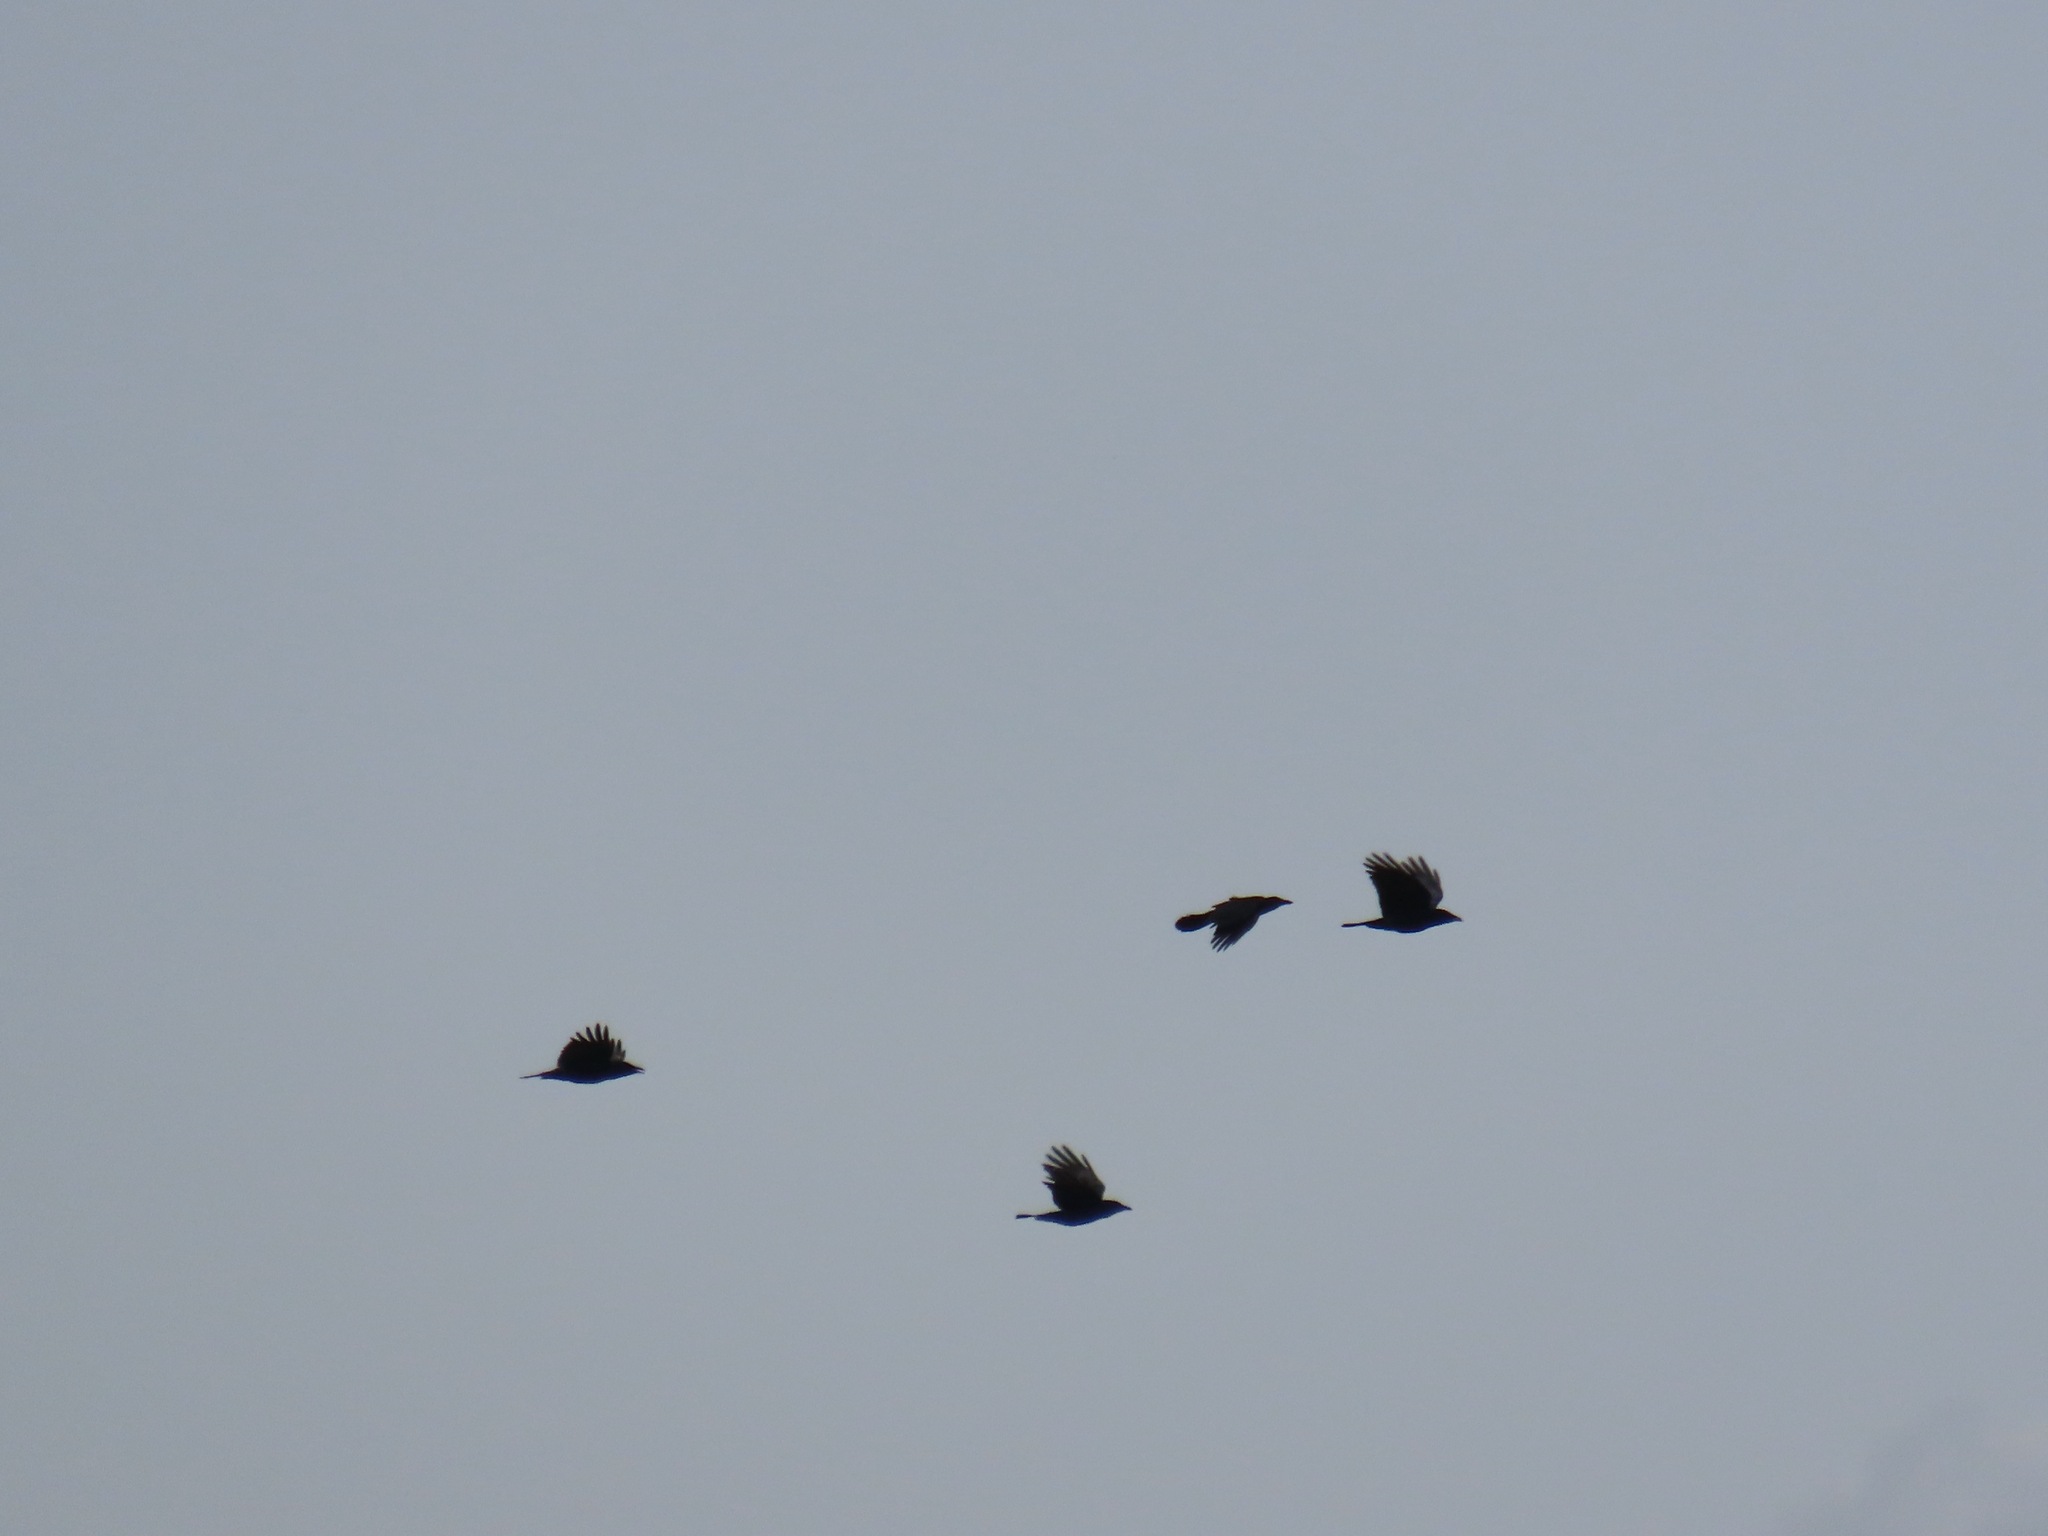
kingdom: Animalia
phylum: Chordata
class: Aves
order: Passeriformes
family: Corvidae
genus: Corvus
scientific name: Corvus brachyrhynchos
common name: American crow
